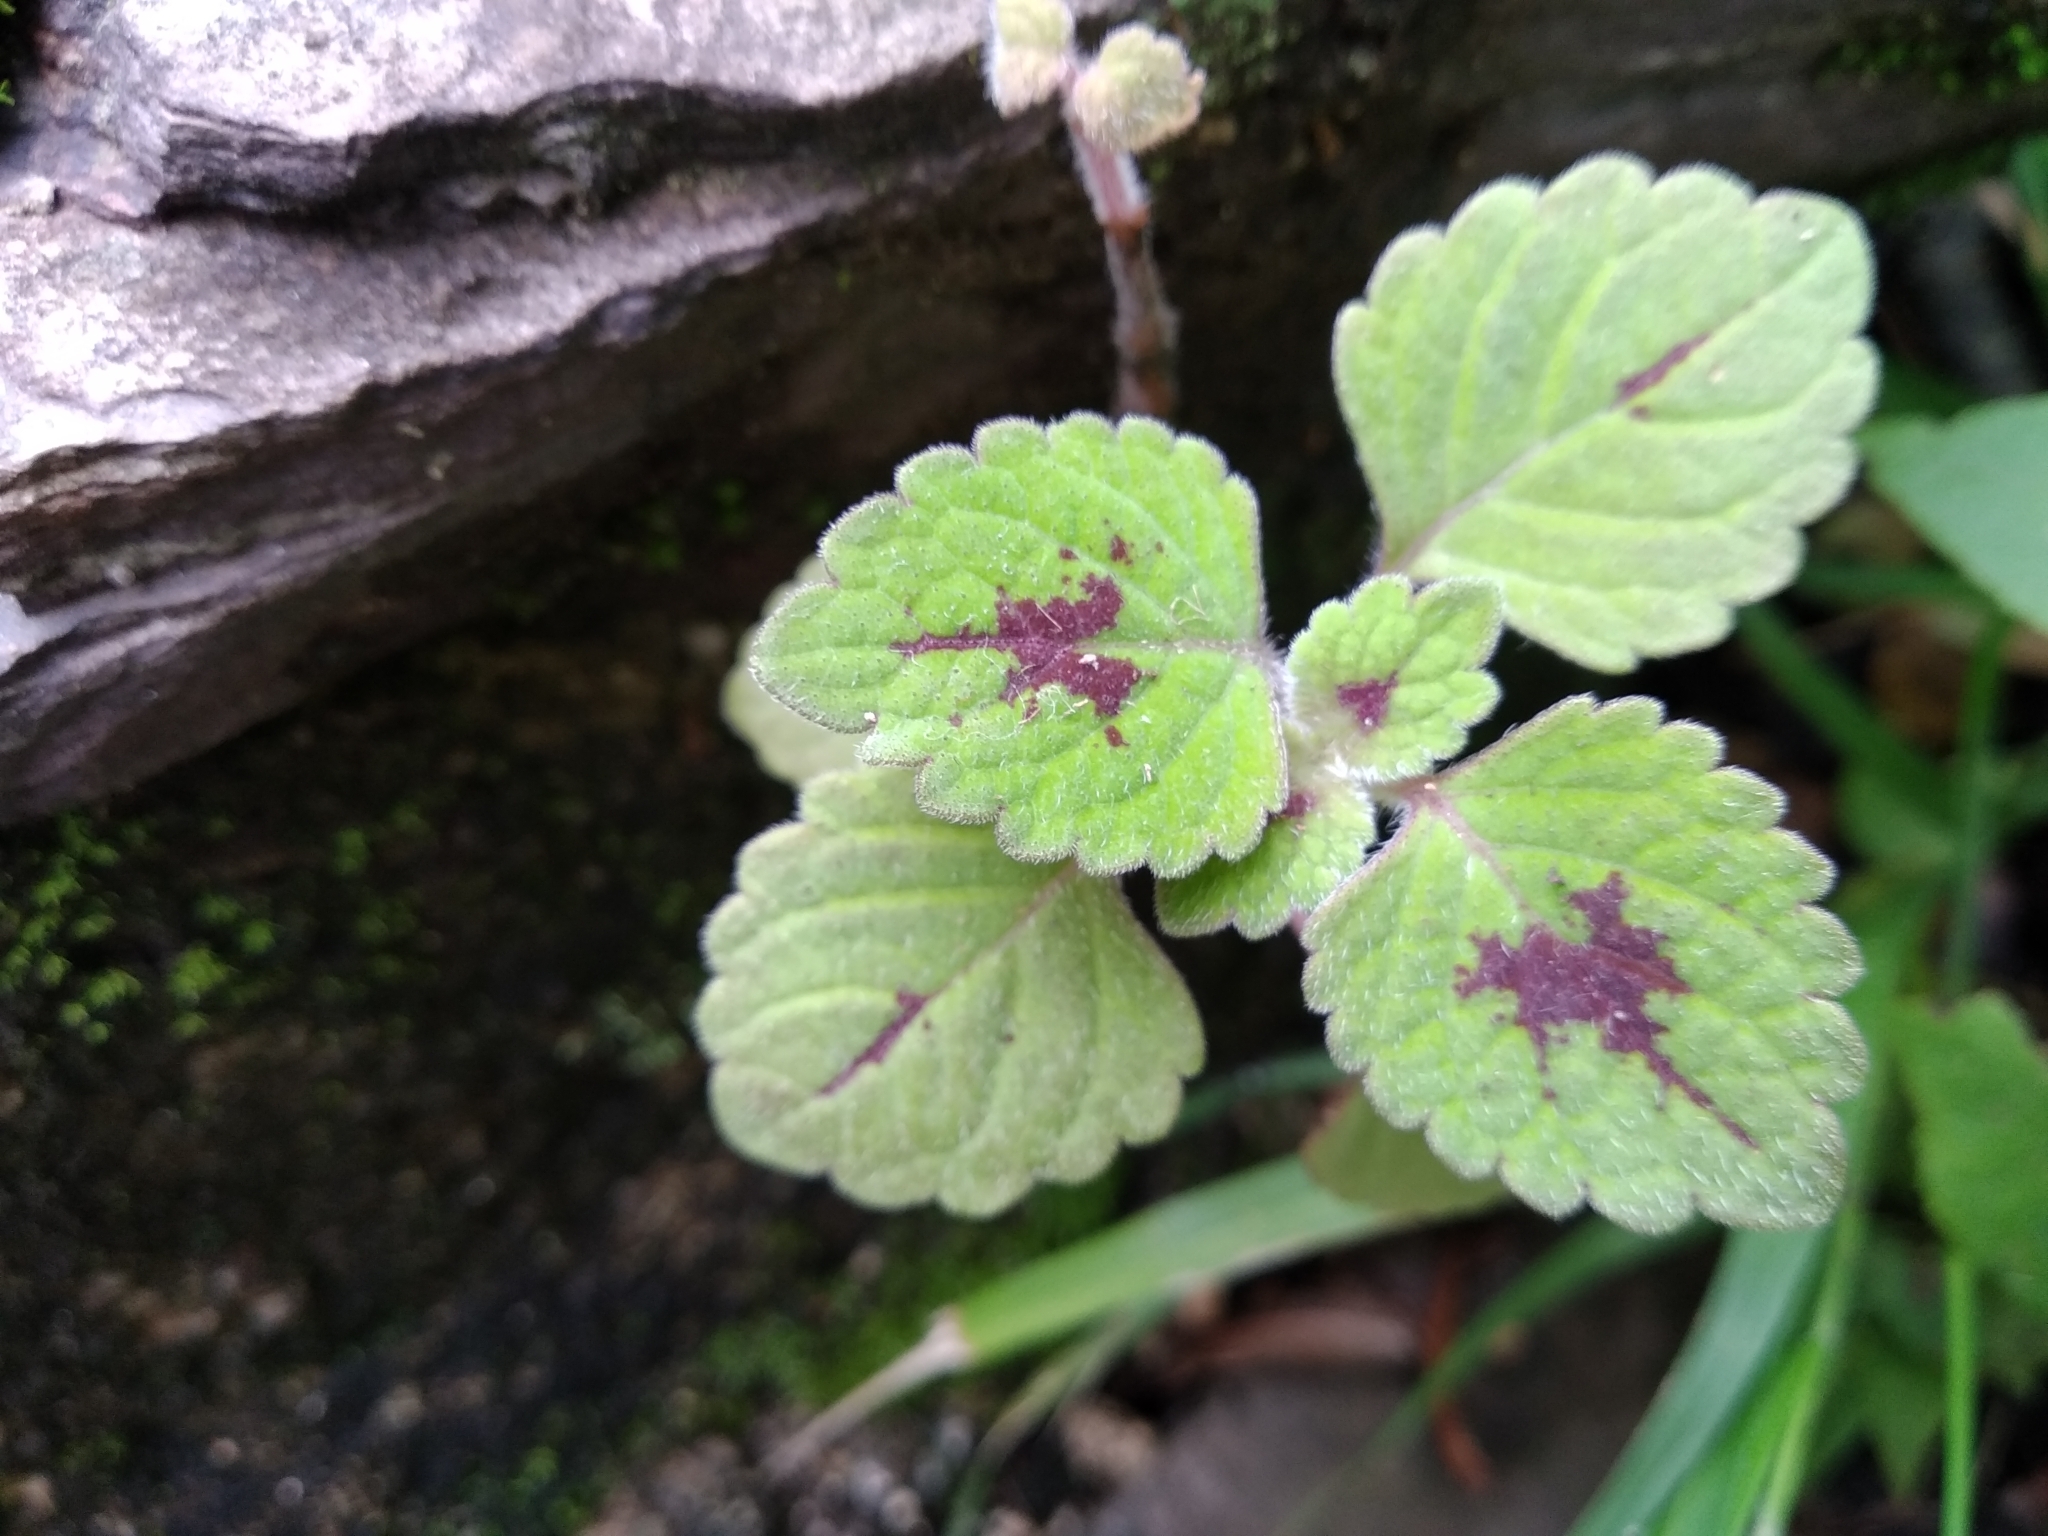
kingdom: Plantae
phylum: Tracheophyta
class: Magnoliopsida
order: Lamiales
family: Lamiaceae
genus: Coleus
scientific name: Coleus bojeri
